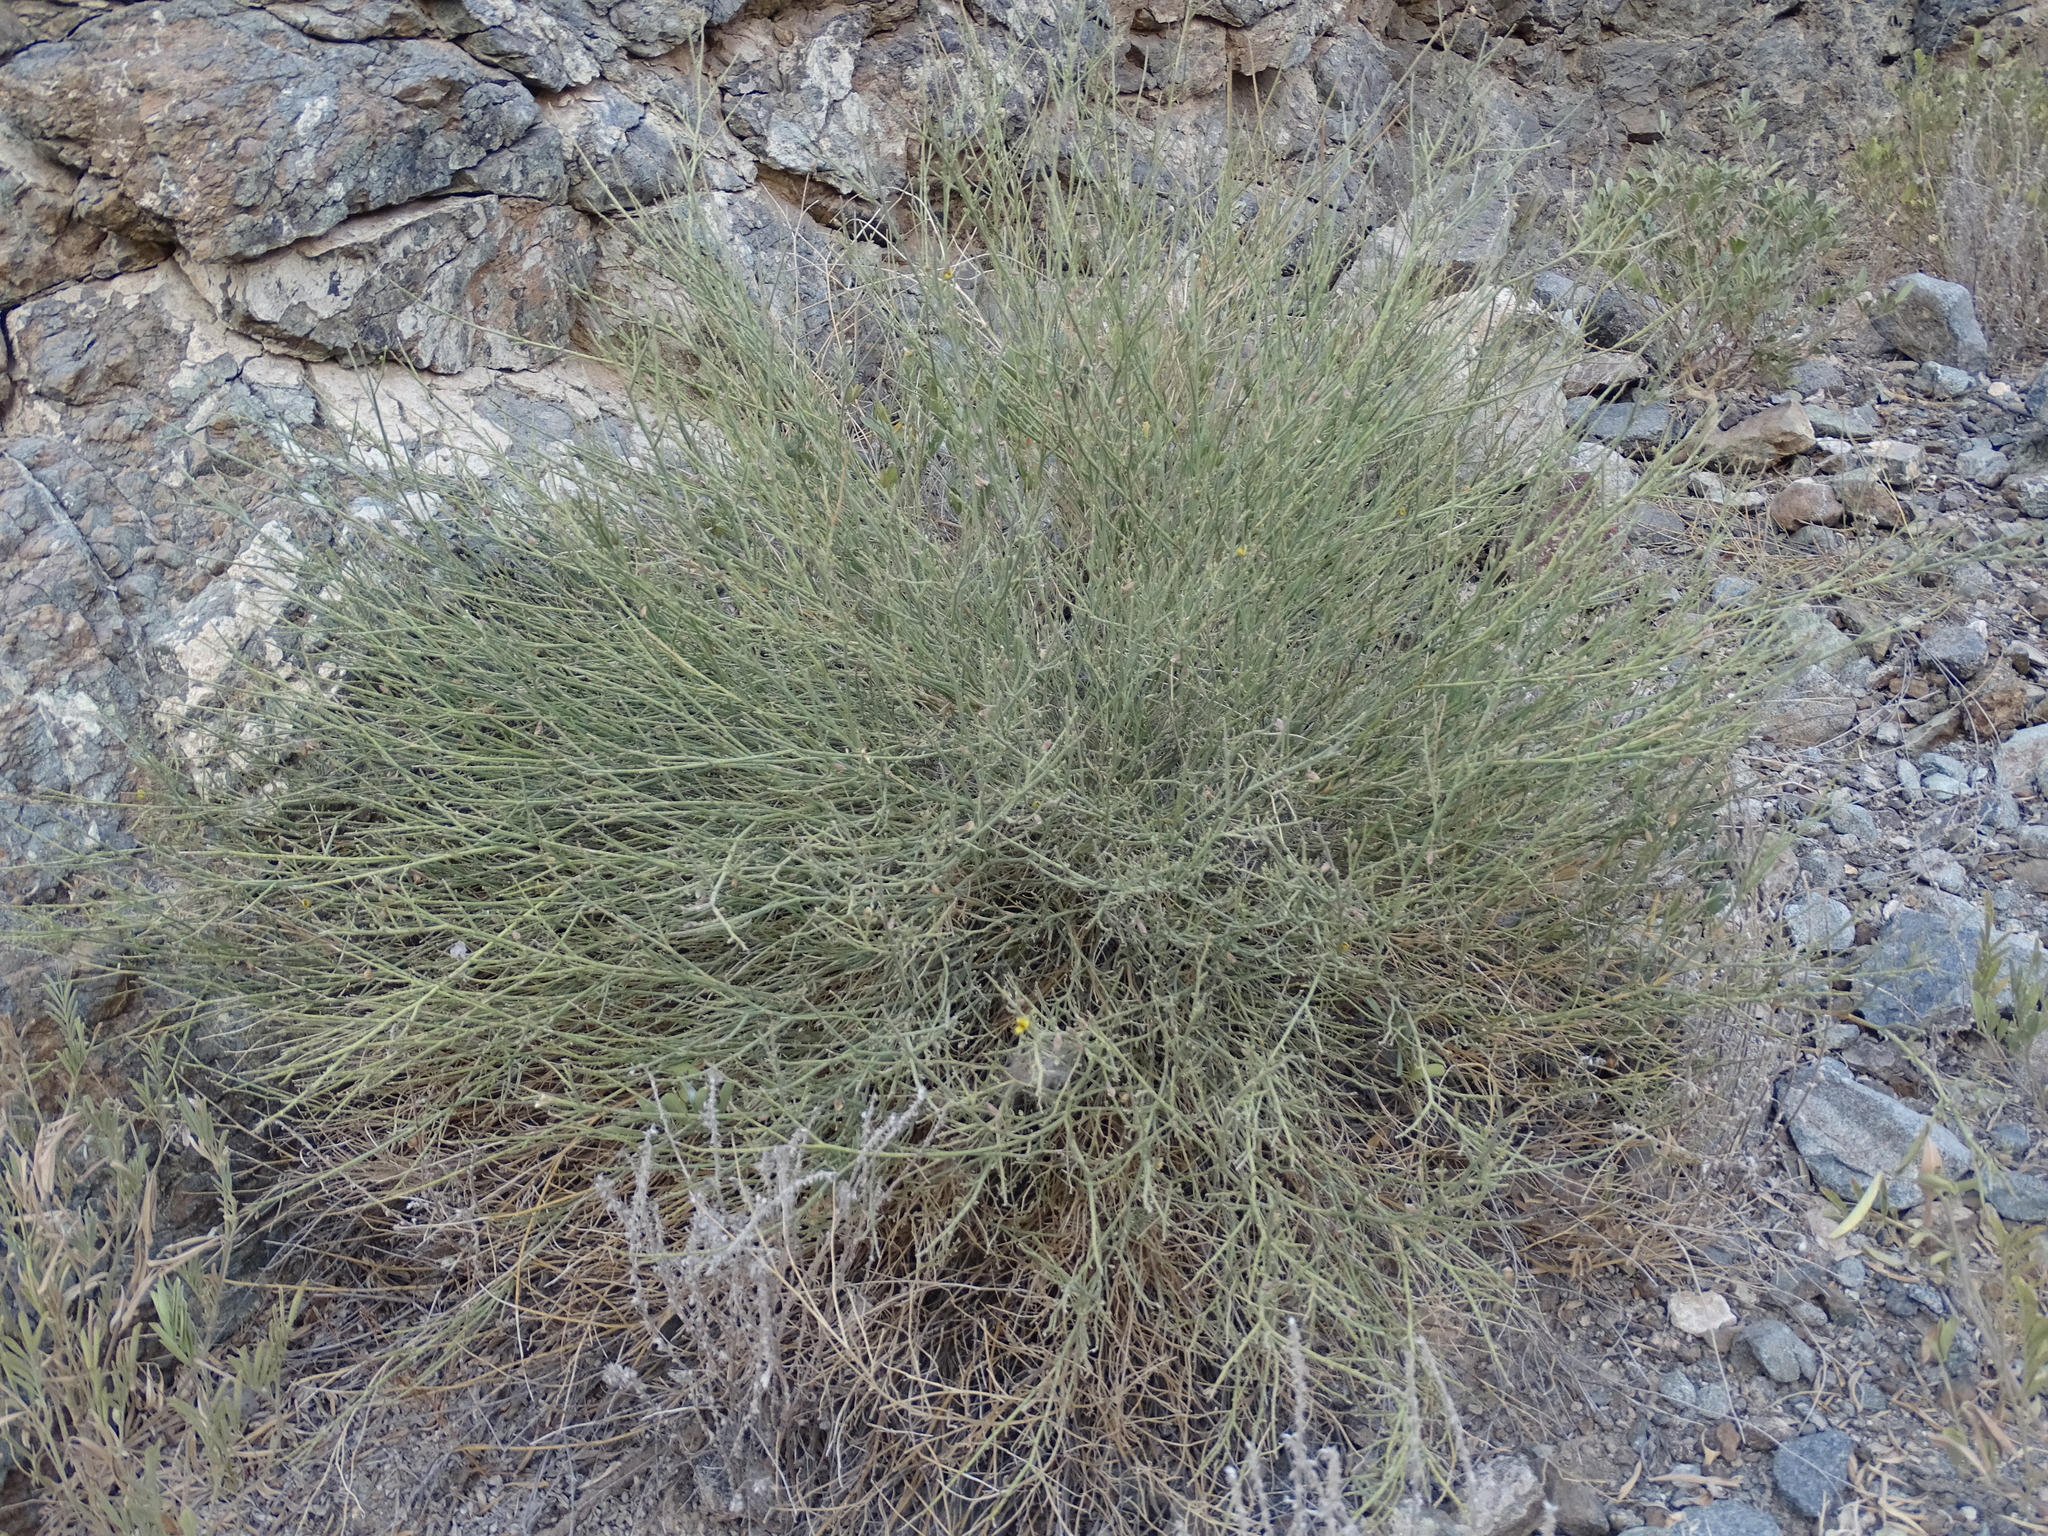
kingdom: Plantae
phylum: Tracheophyta
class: Magnoliopsida
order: Fabales
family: Fabaceae
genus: Crotalaria
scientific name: Crotalaria aegyptiaca
